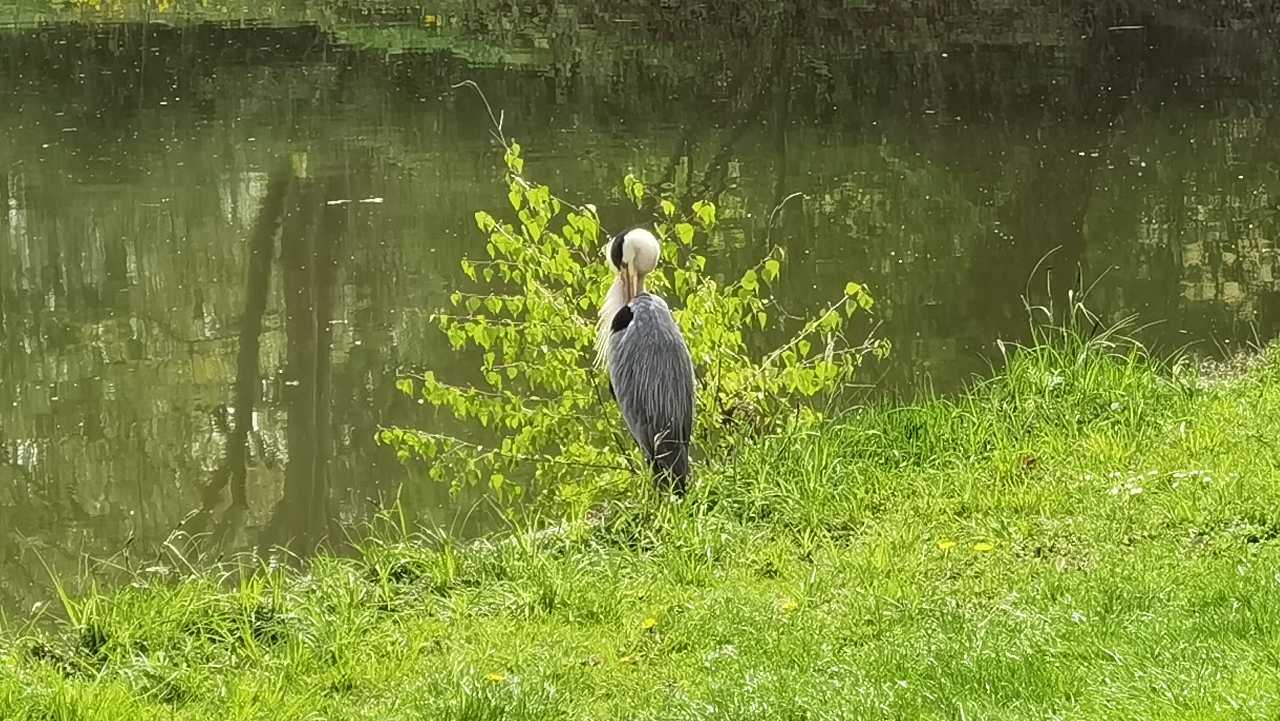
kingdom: Animalia
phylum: Chordata
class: Aves
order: Pelecaniformes
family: Ardeidae
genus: Ardea
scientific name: Ardea cinerea
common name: Grey heron
